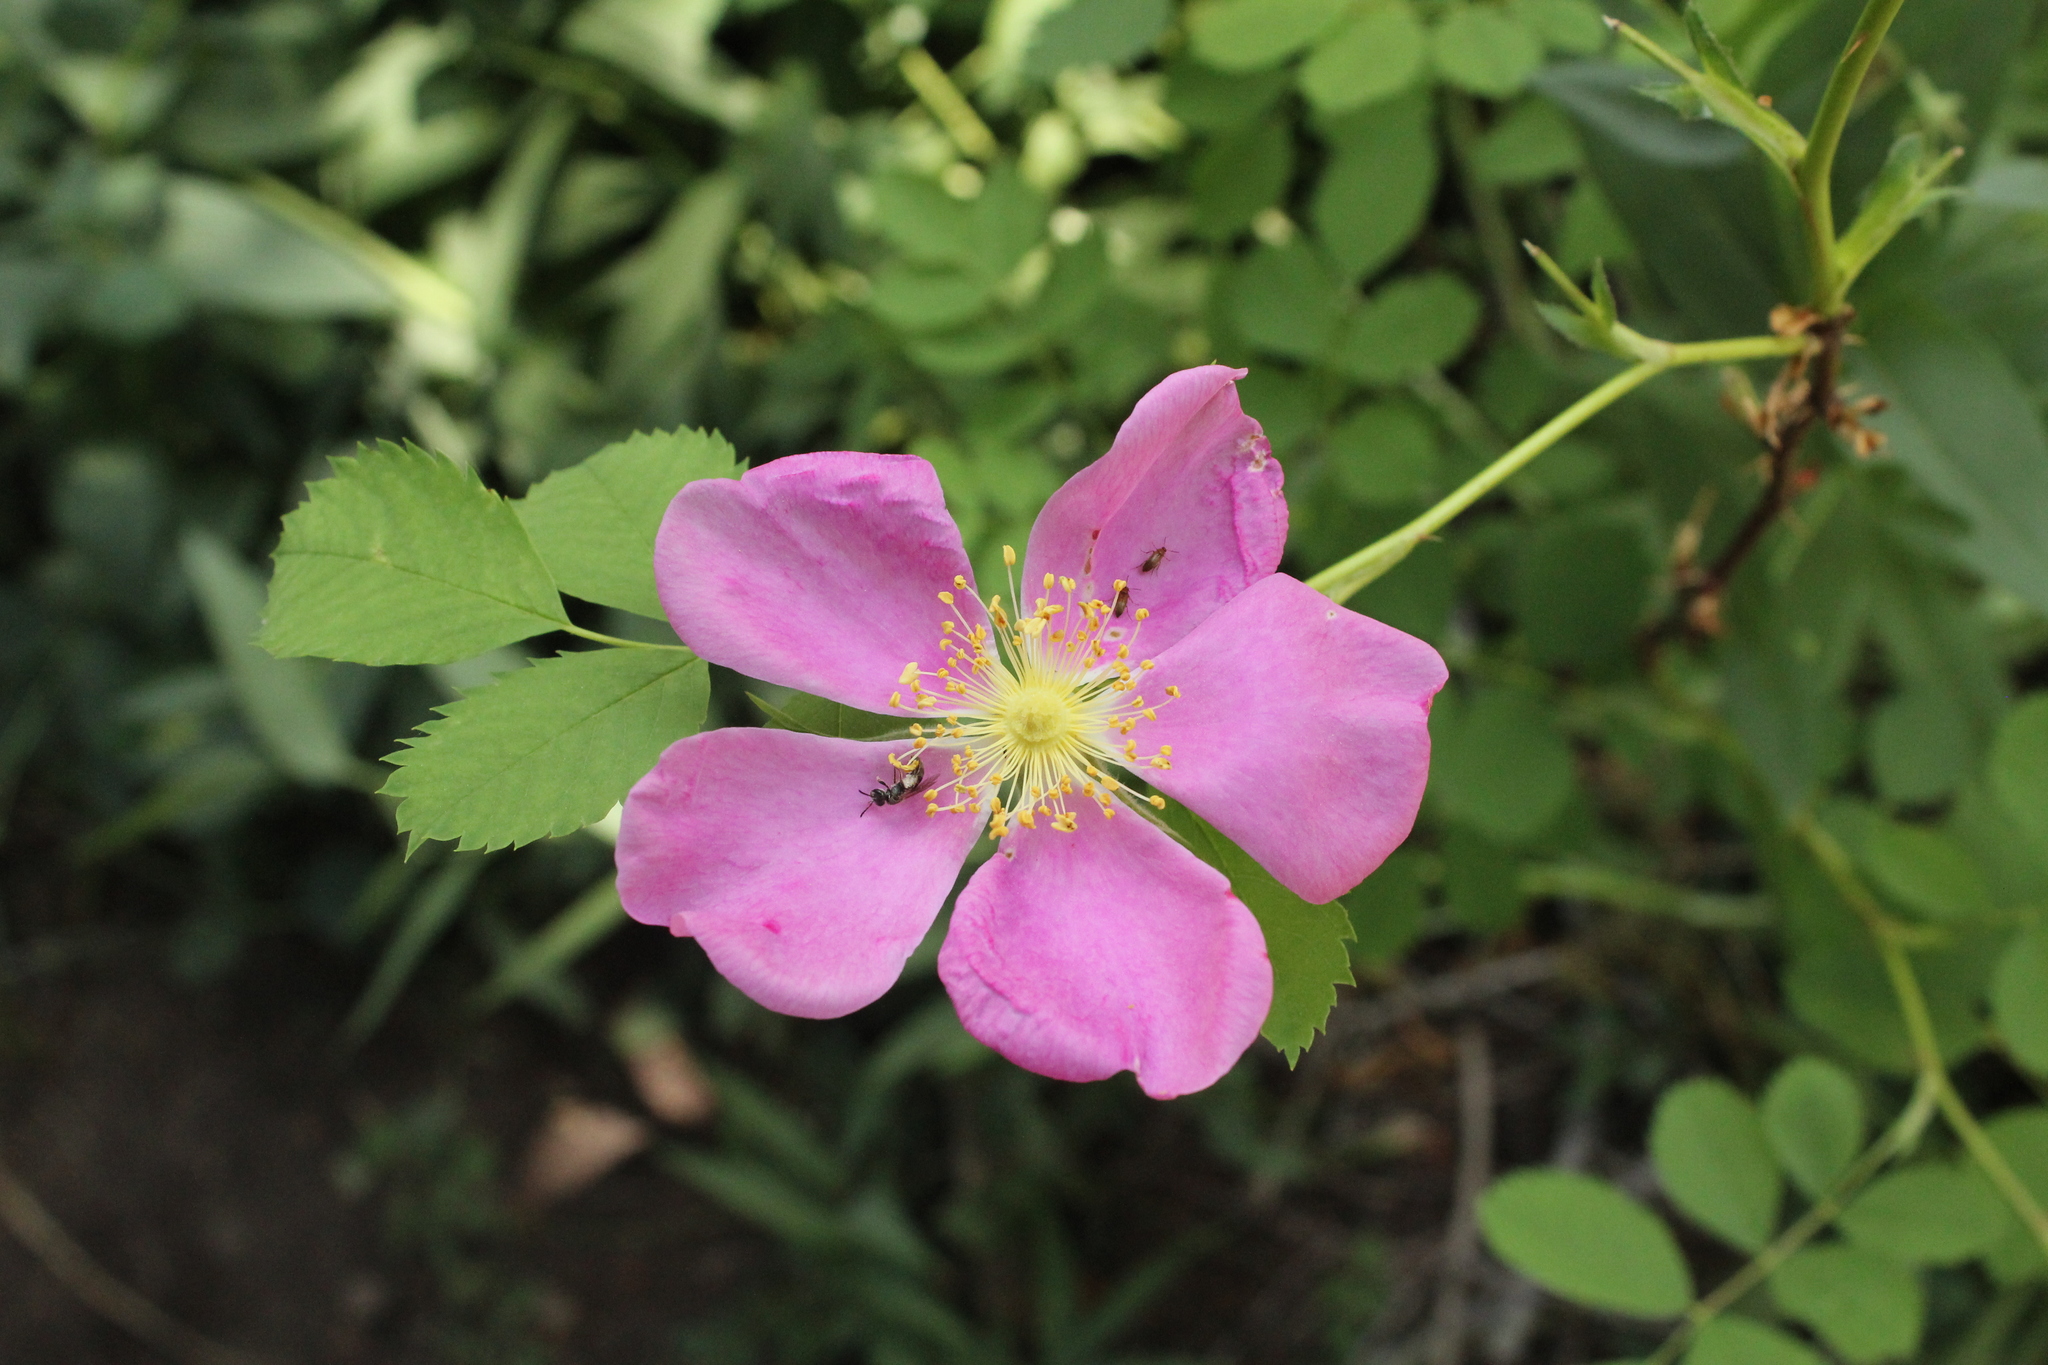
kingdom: Plantae
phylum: Tracheophyta
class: Magnoliopsida
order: Rosales
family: Rosaceae
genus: Rosa
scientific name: Rosa woodsii
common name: Woods's rose
